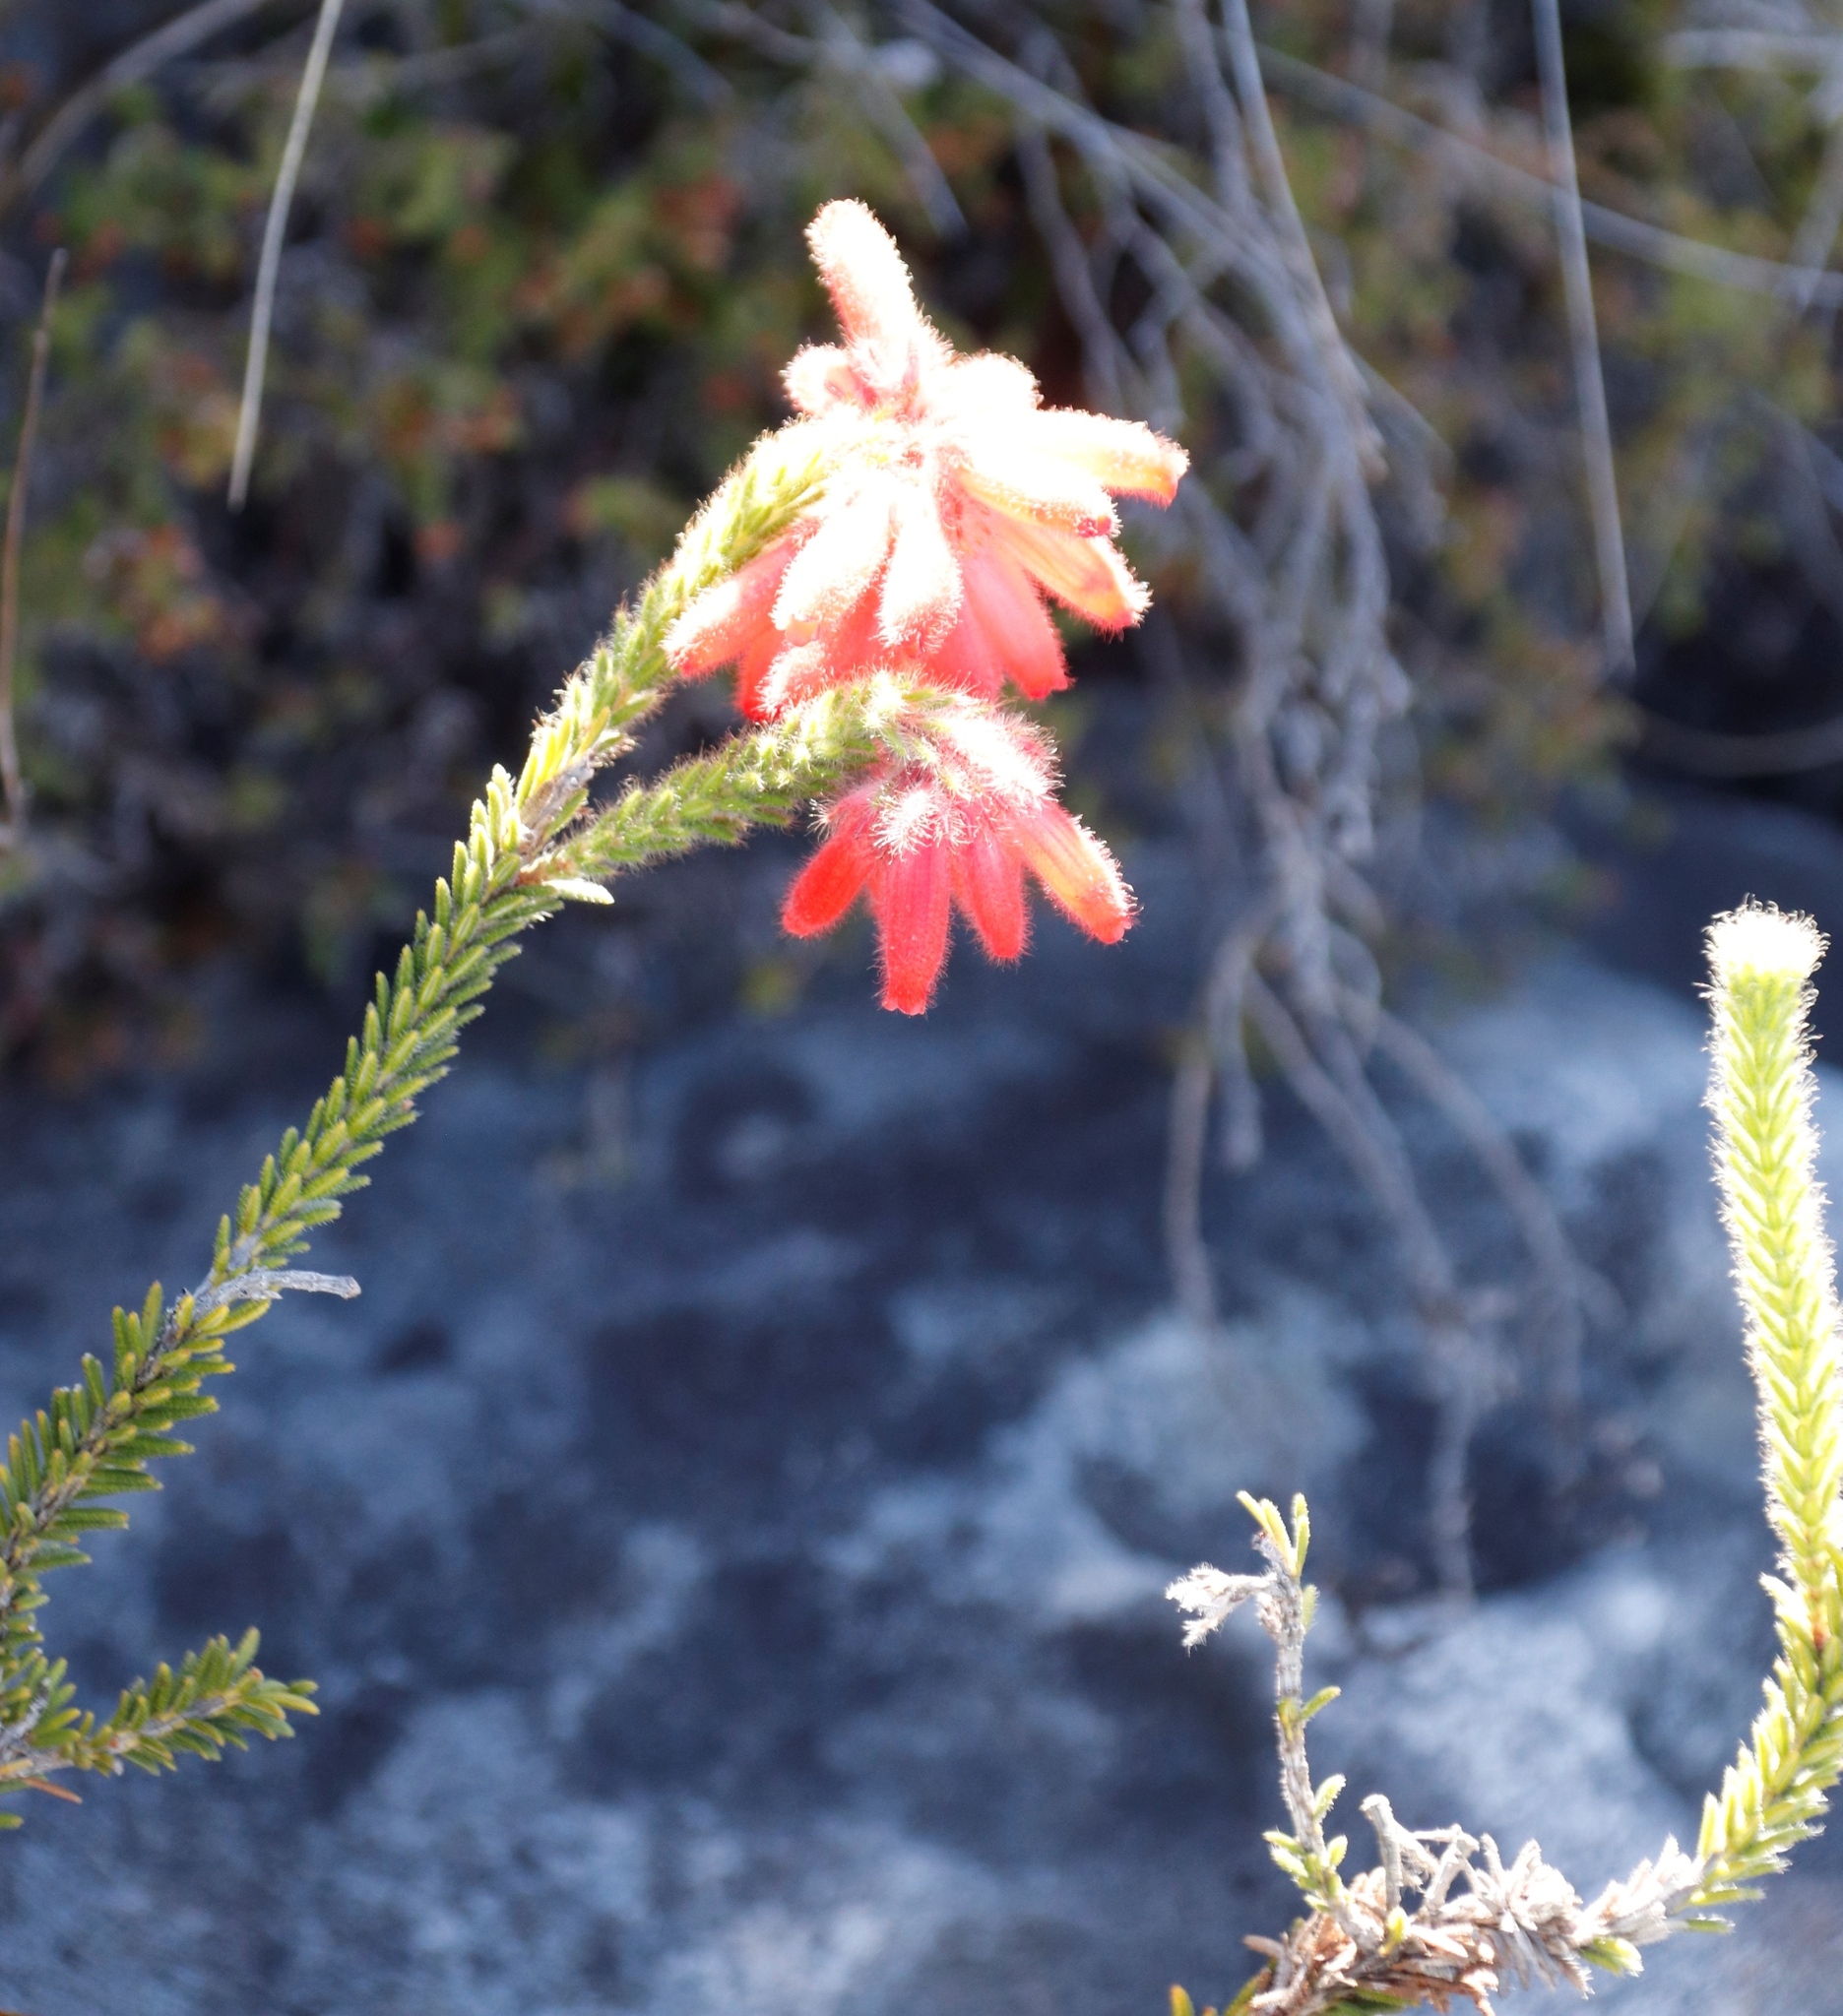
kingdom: Plantae
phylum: Tracheophyta
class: Magnoliopsida
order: Ericales
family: Ericaceae
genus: Erica
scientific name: Erica cerinthoides
